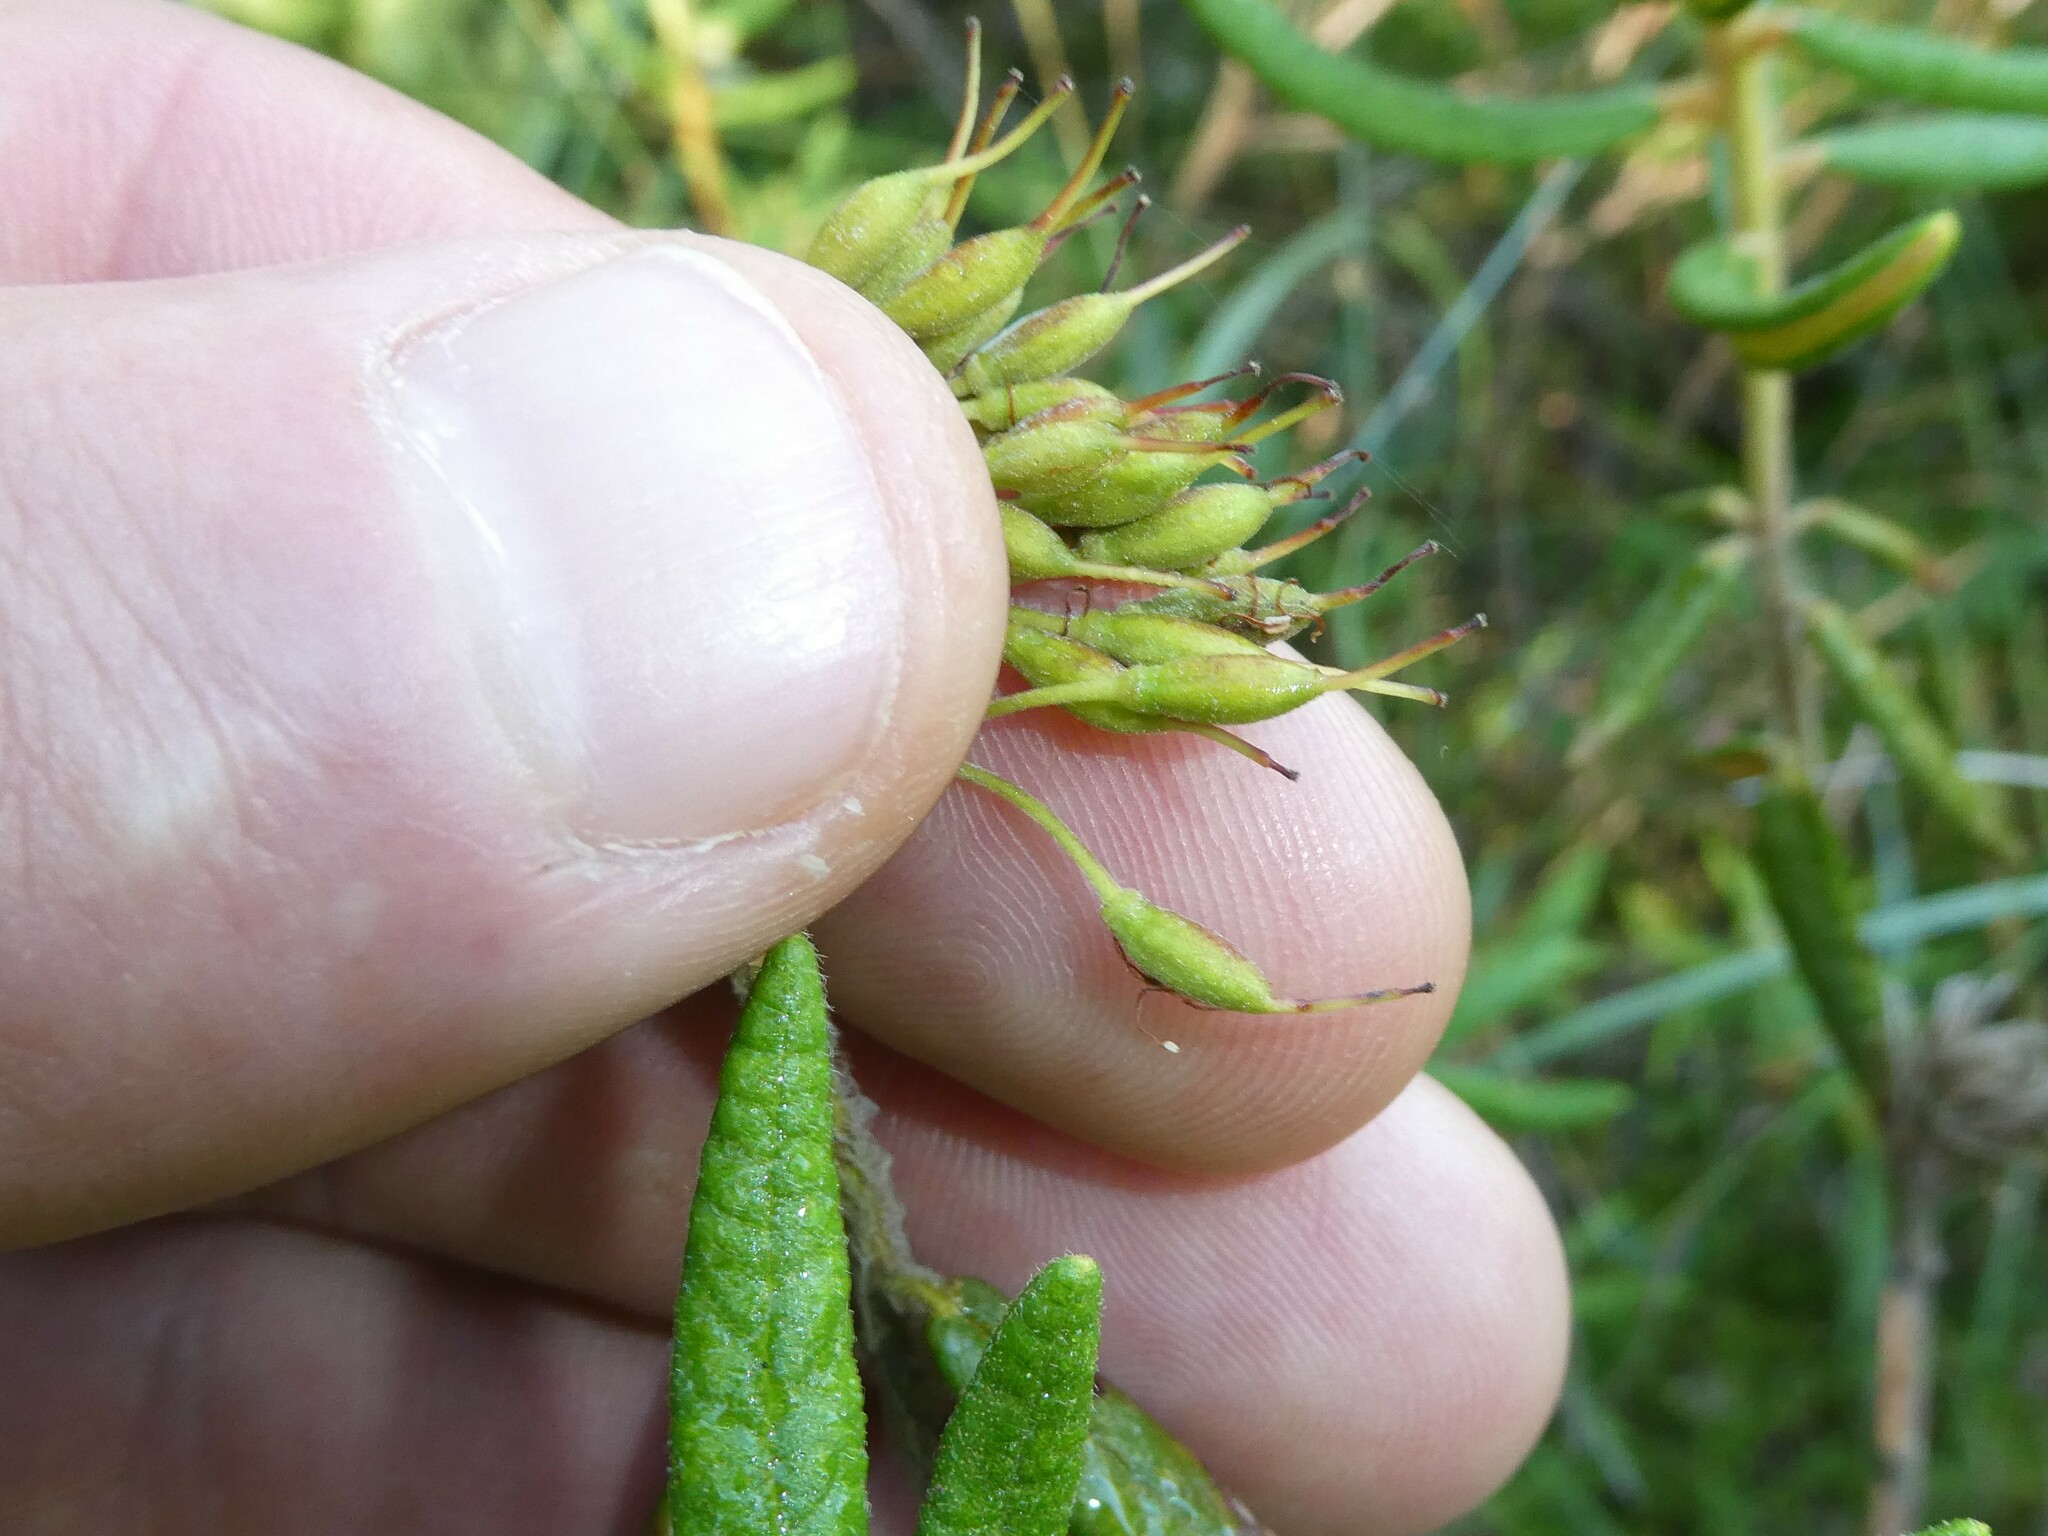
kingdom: Plantae
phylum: Tracheophyta
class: Magnoliopsida
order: Ericales
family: Ericaceae
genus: Rhododendron
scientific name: Rhododendron groenlandicum
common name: Bog labrador tea
